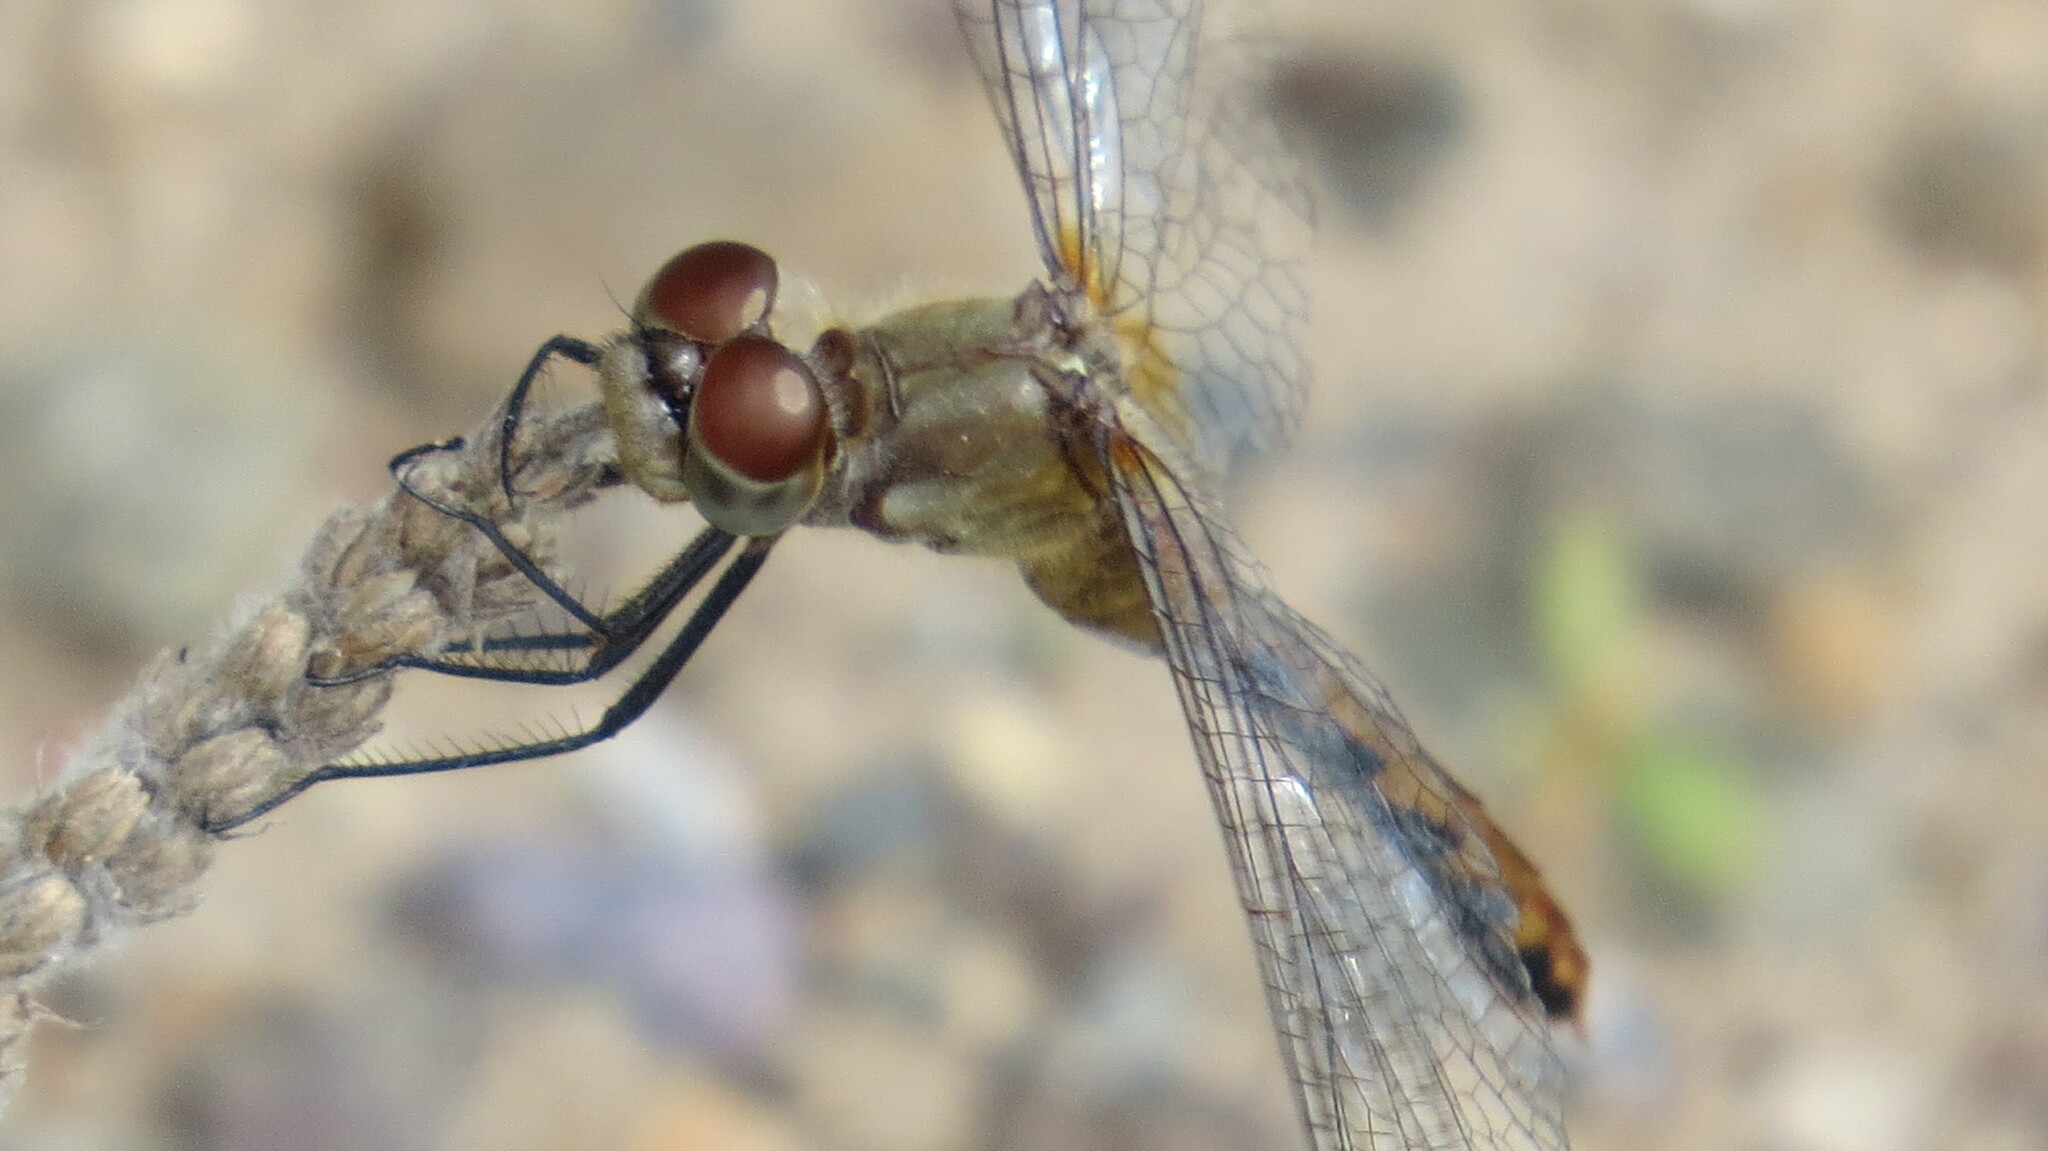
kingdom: Animalia
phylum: Arthropoda
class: Insecta
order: Odonata
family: Libellulidae
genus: Sympetrum
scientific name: Sympetrum obtrusum
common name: White-faced meadowhawk
